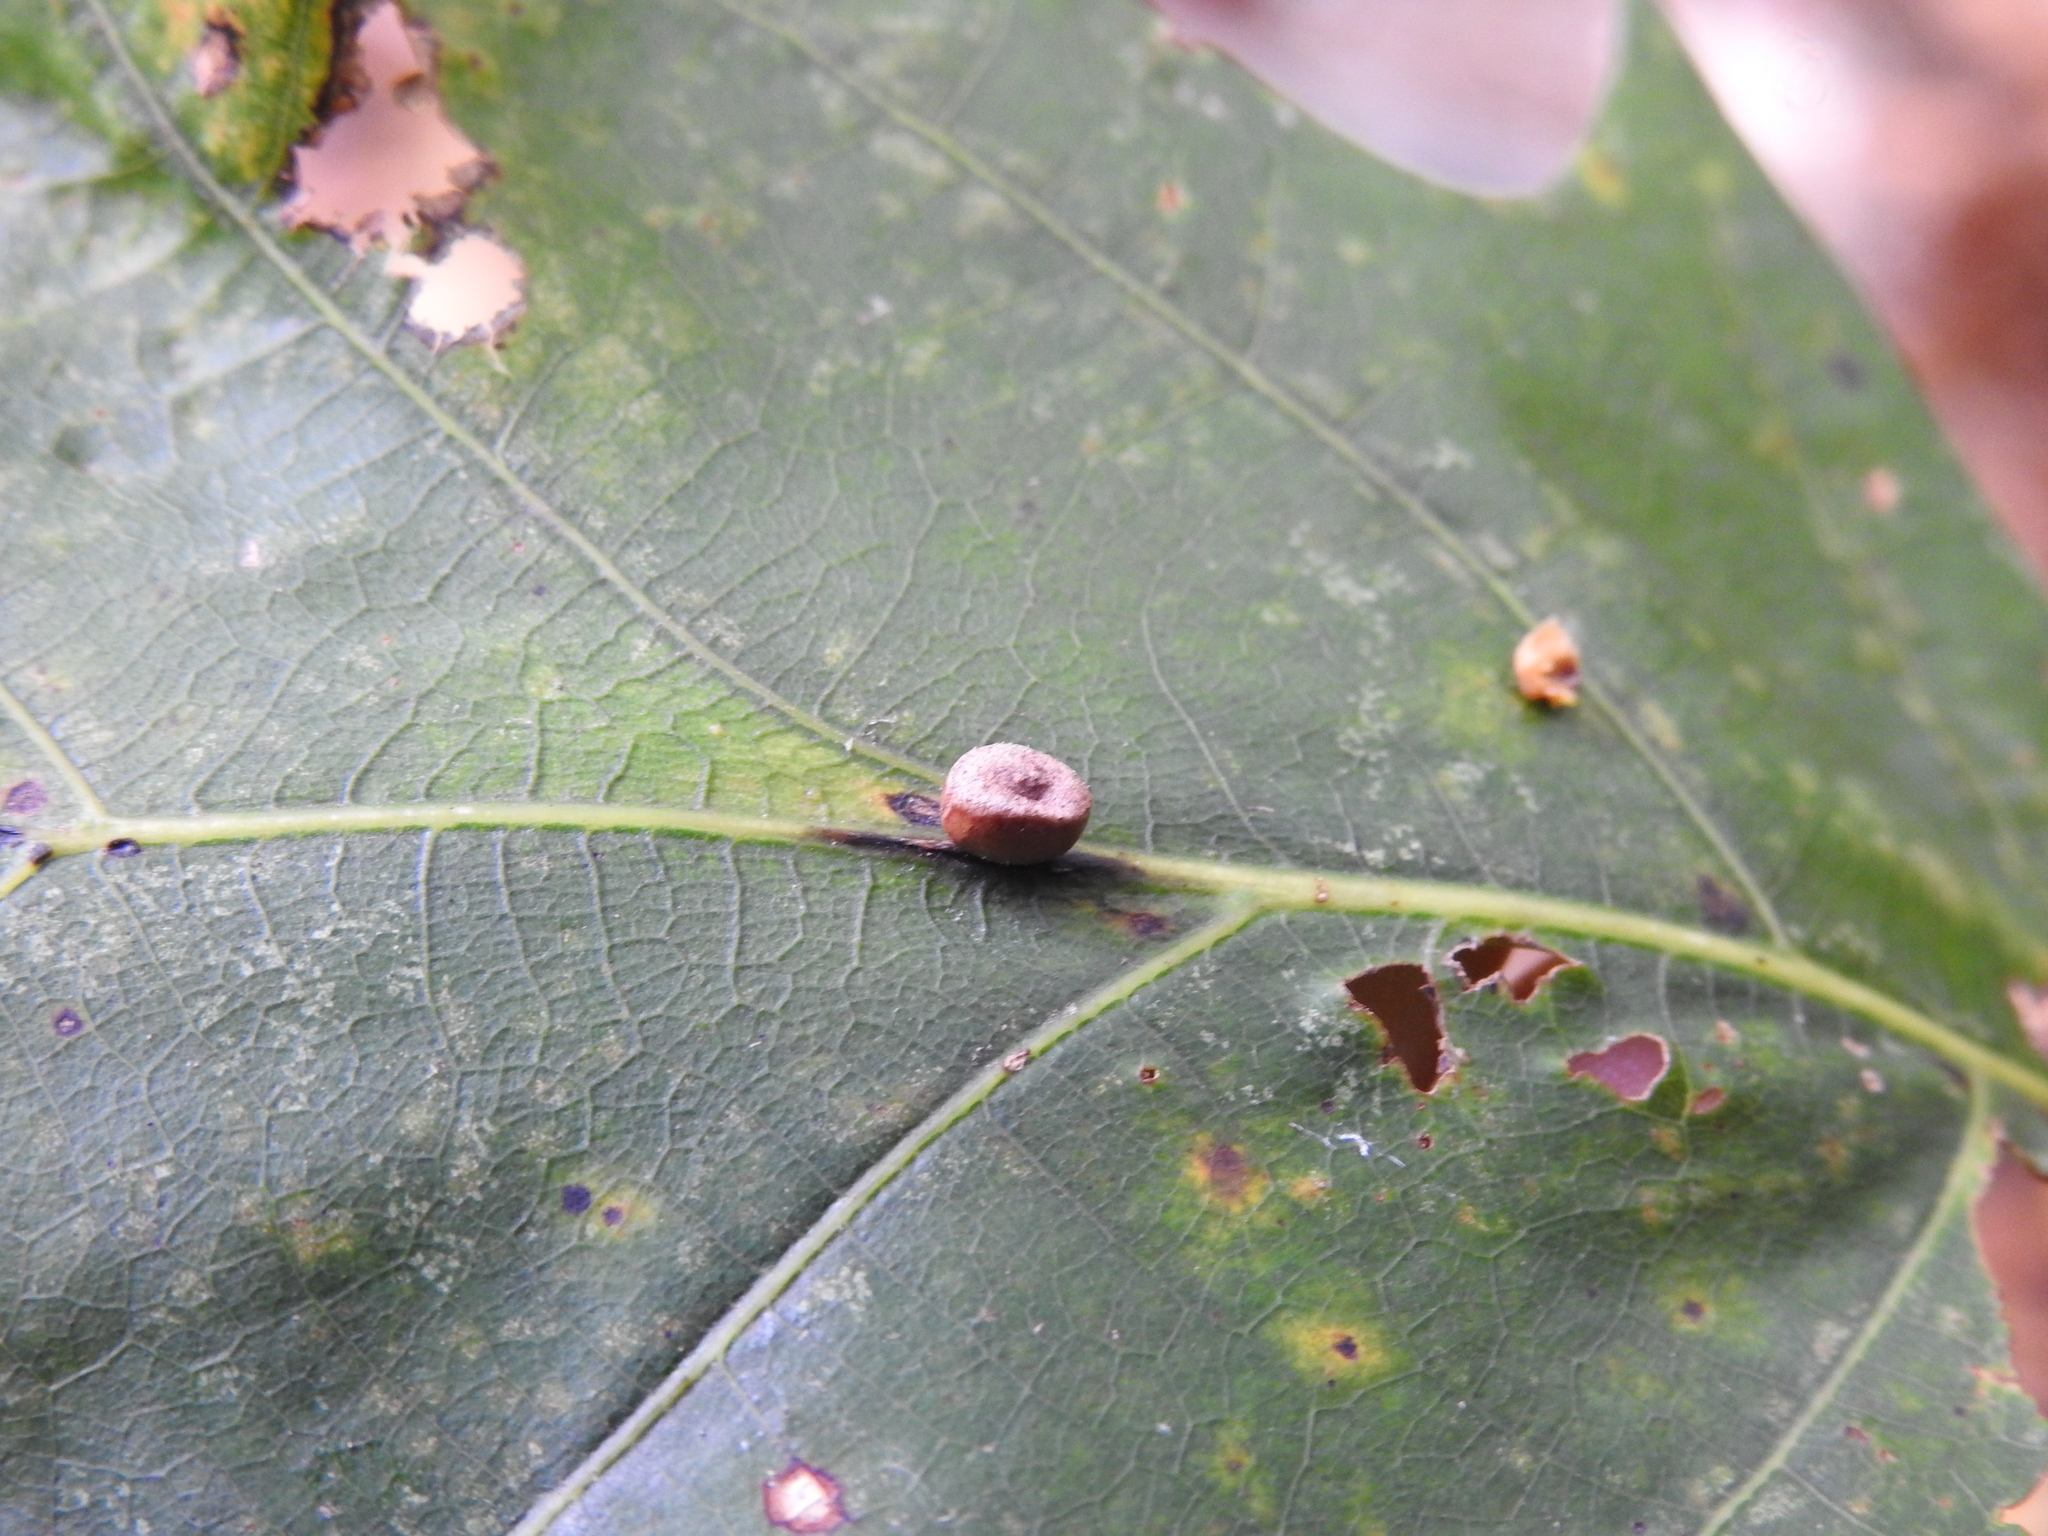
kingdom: Animalia
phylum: Arthropoda
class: Insecta
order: Hymenoptera
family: Cynipidae
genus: Kokkocynips
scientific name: Kokkocynips rileyi
